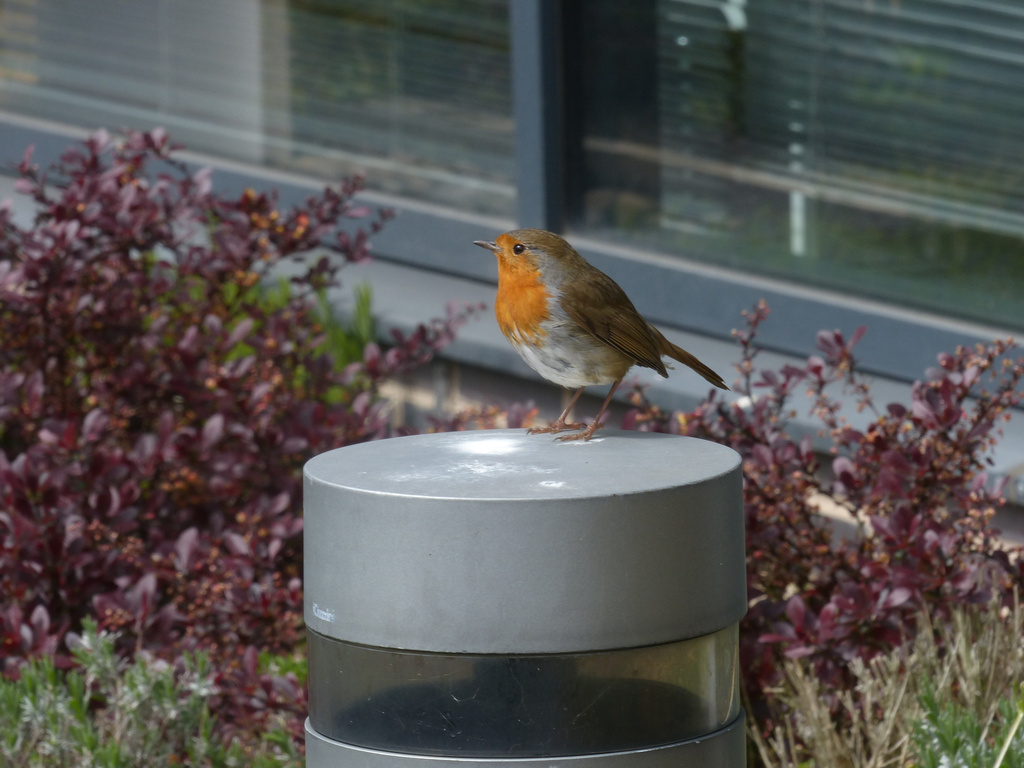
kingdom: Animalia
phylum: Chordata
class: Aves
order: Passeriformes
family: Muscicapidae
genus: Erithacus
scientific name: Erithacus rubecula
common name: European robin
